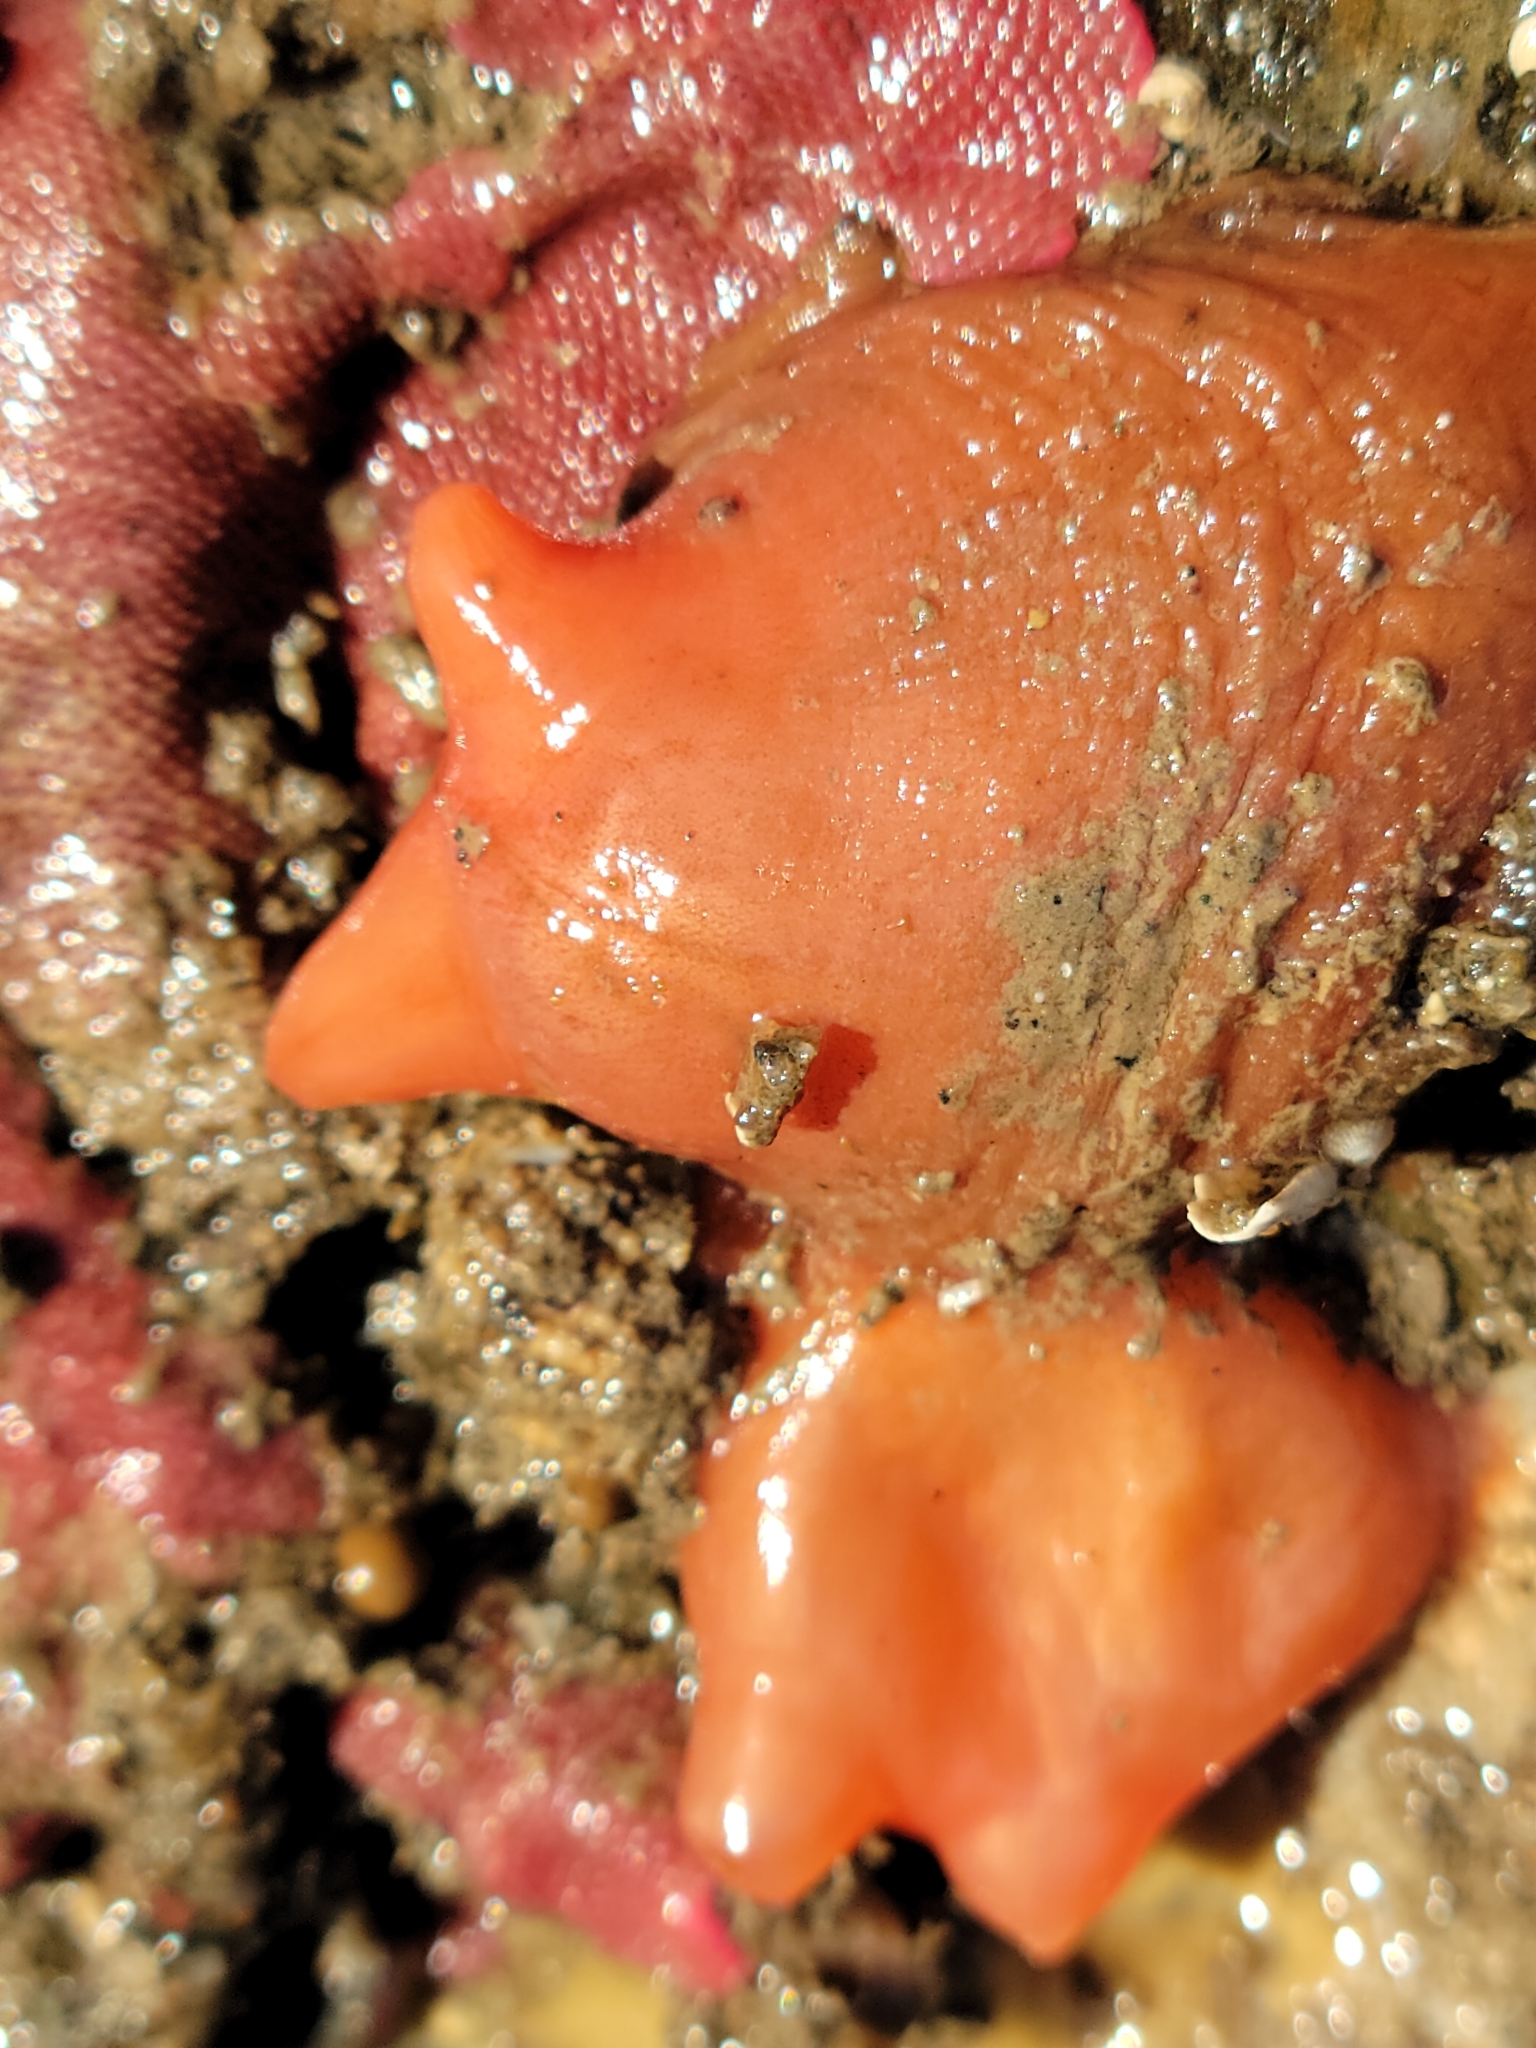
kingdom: Animalia
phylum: Chordata
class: Ascidiacea
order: Stolidobranchia
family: Styelidae
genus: Cnemidocarpa
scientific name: Cnemidocarpa finmarkiensis
